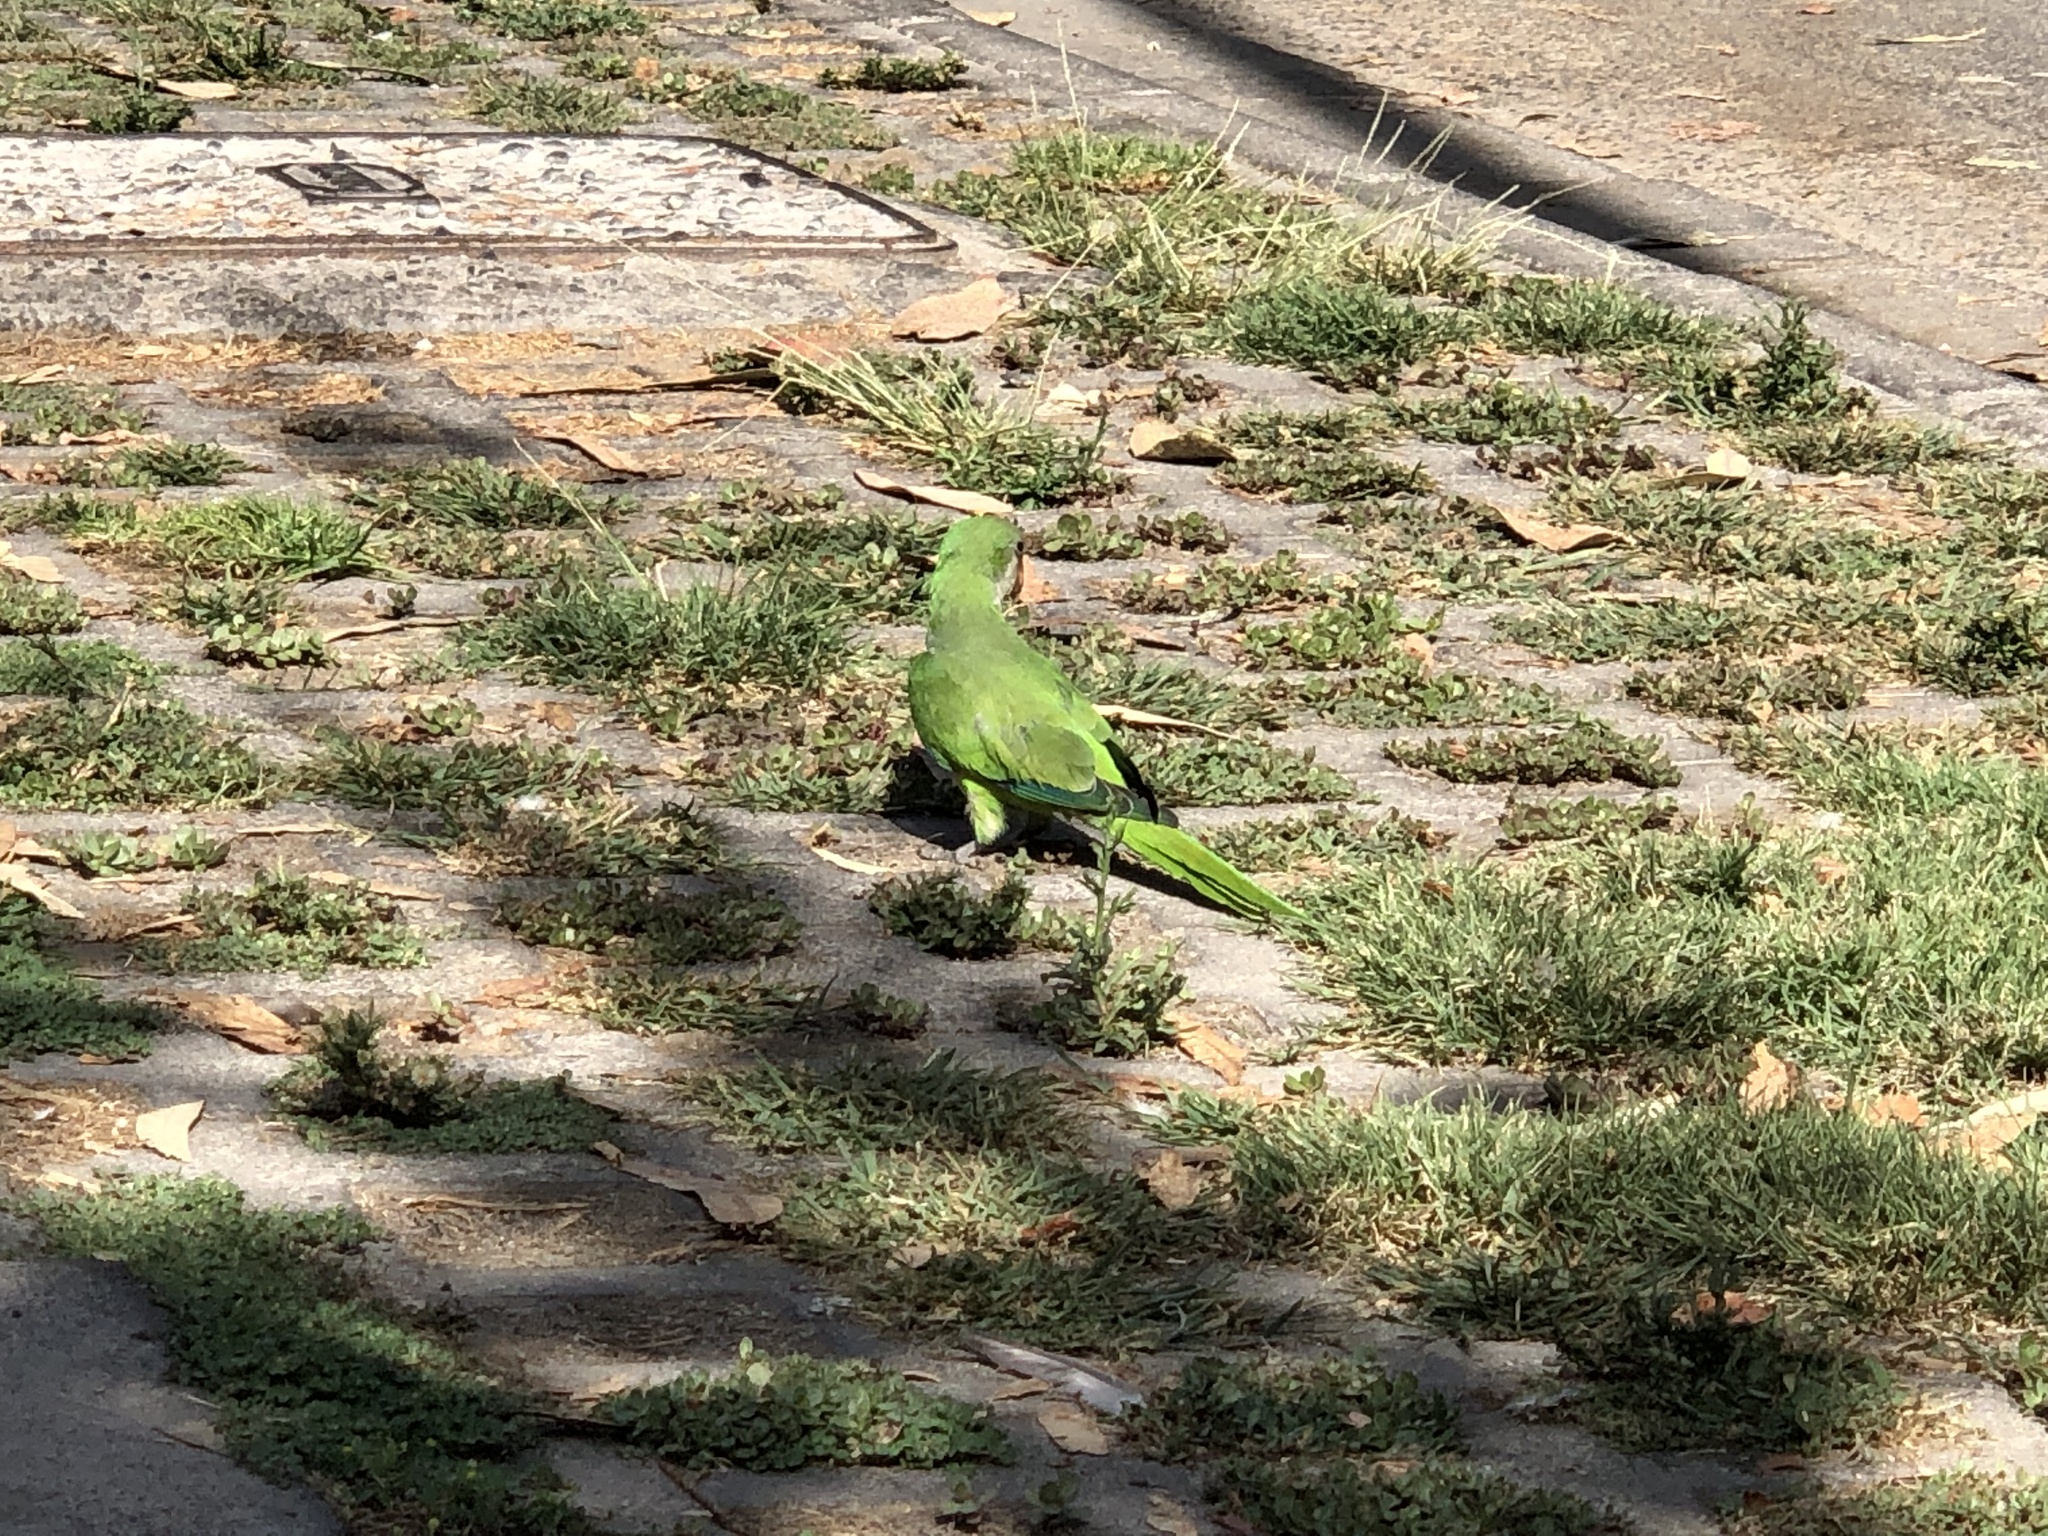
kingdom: Animalia
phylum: Chordata
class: Aves
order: Psittaciformes
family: Psittacidae
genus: Myiopsitta
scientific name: Myiopsitta monachus
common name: Monk parakeet
